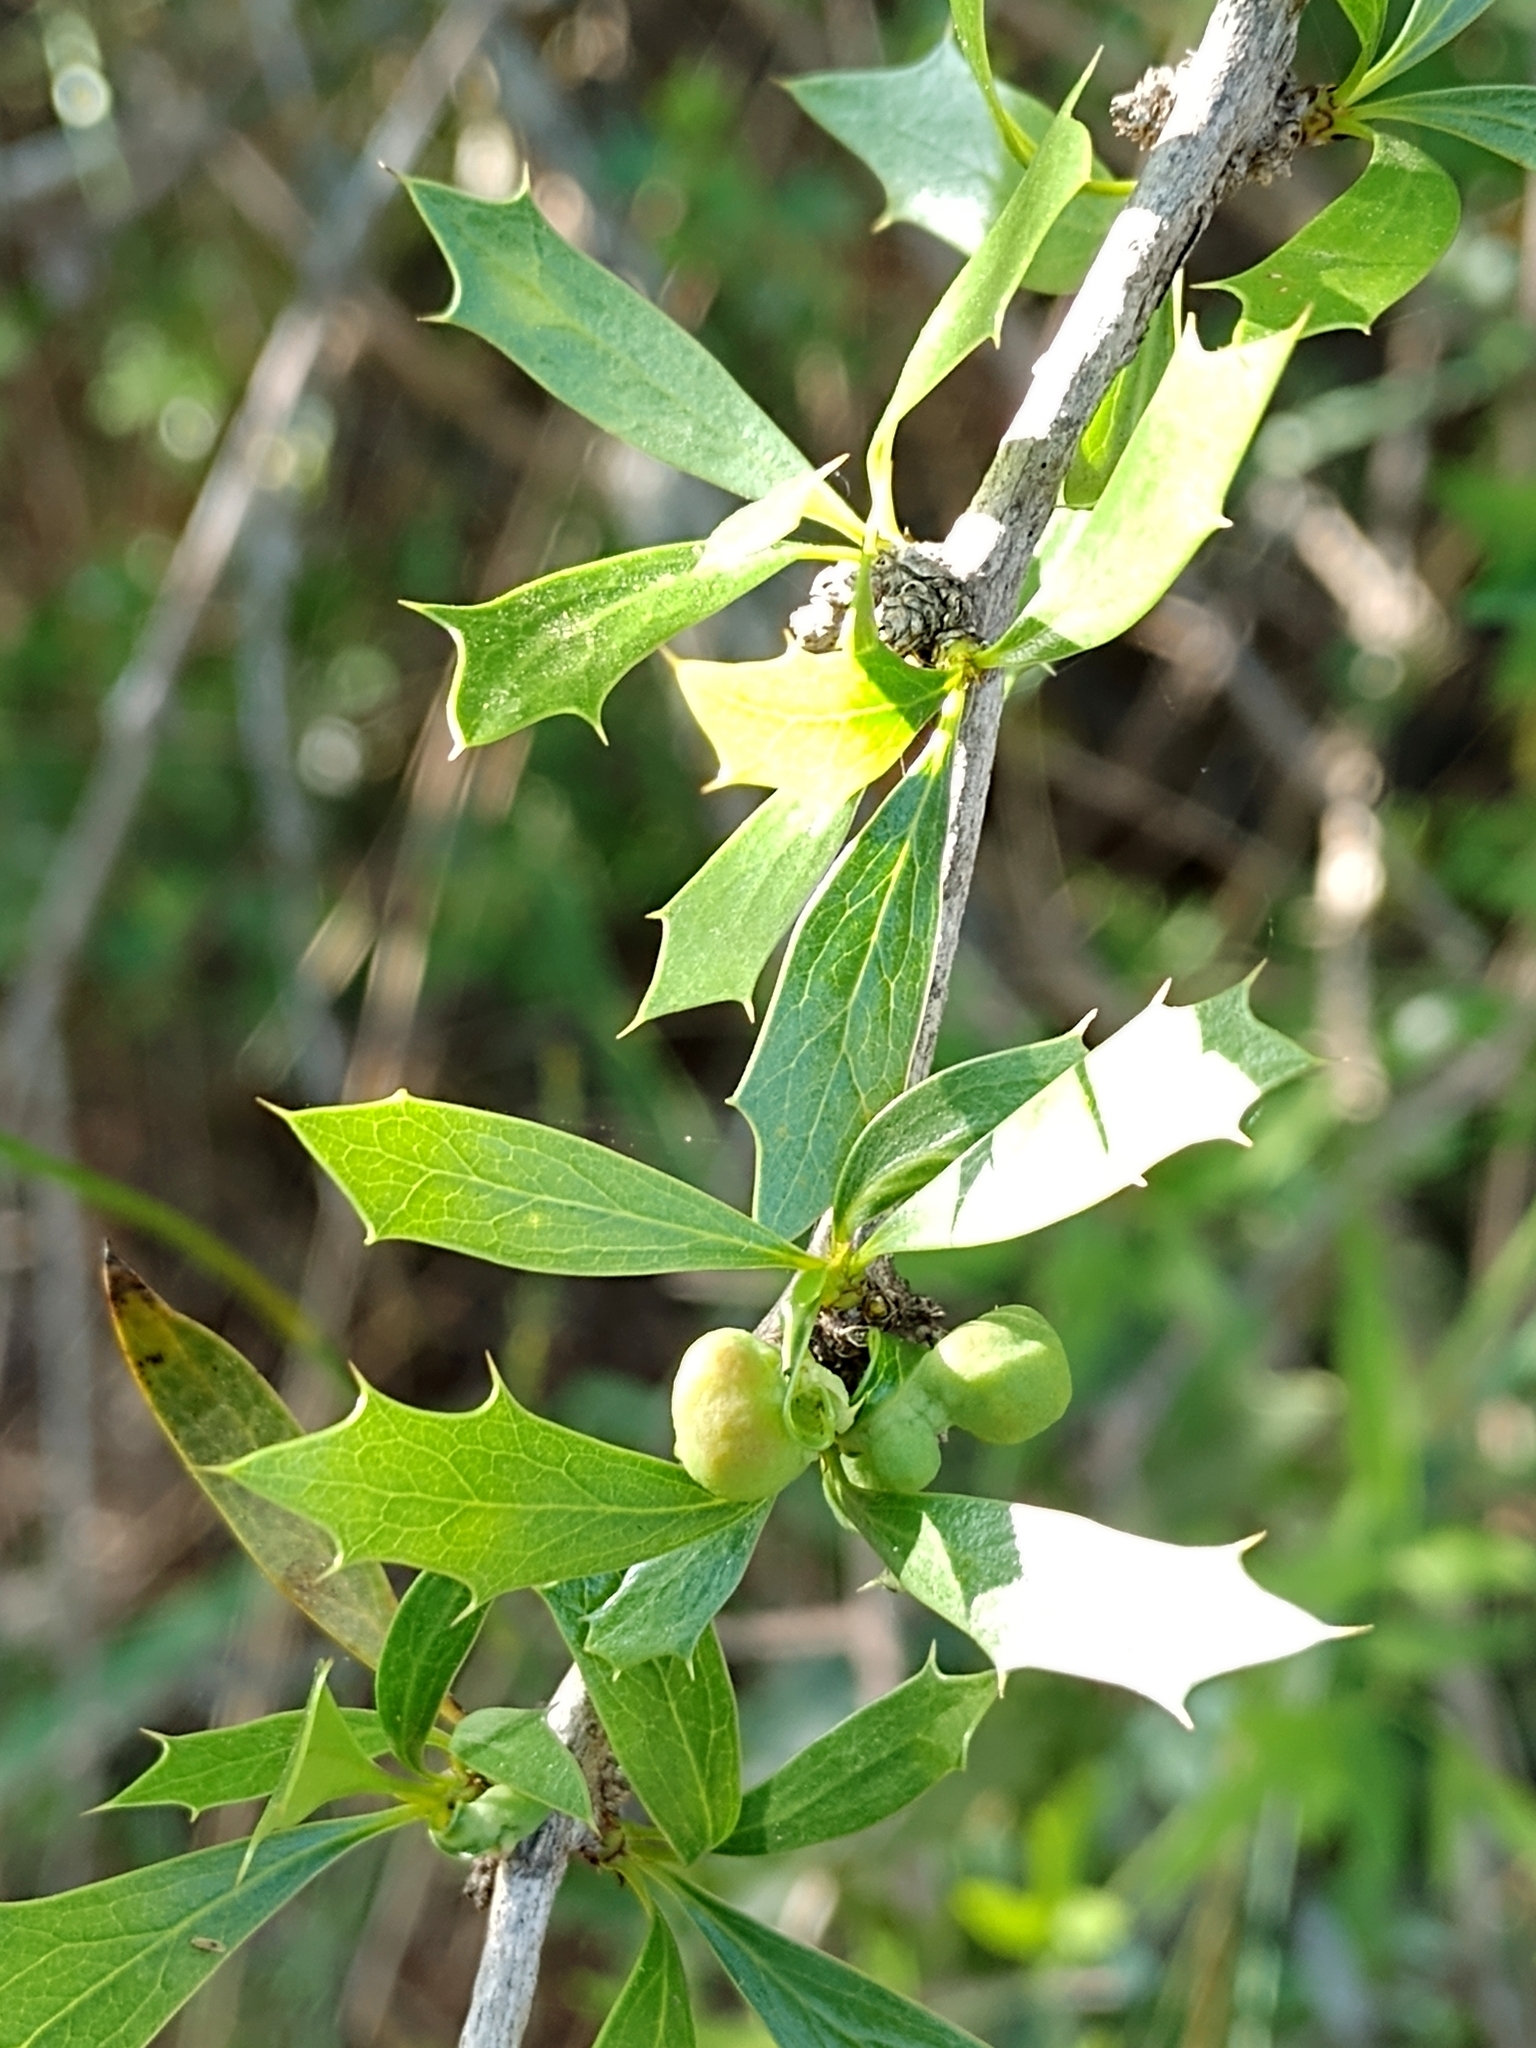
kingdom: Plantae
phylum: Tracheophyta
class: Magnoliopsida
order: Ranunculales
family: Berberidaceae
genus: Berberis
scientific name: Berberis ruscifolia
